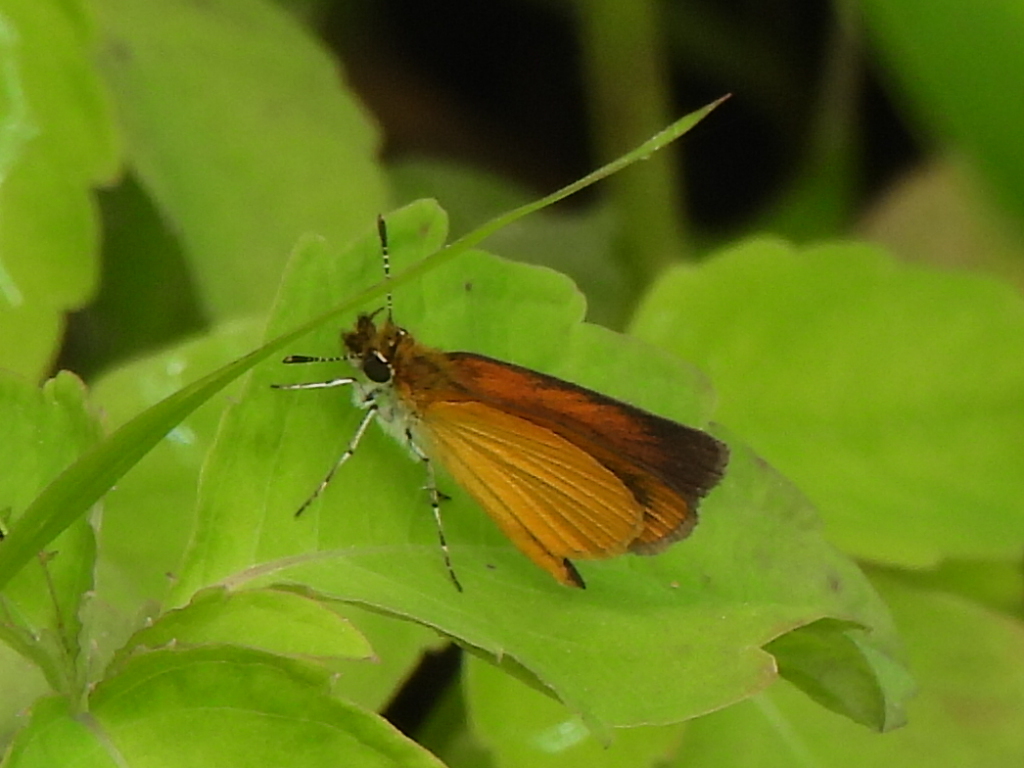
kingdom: Animalia
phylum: Arthropoda
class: Insecta
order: Lepidoptera
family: Hesperiidae
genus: Ancyloxypha
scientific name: Ancyloxypha numitor
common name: Least skipper
